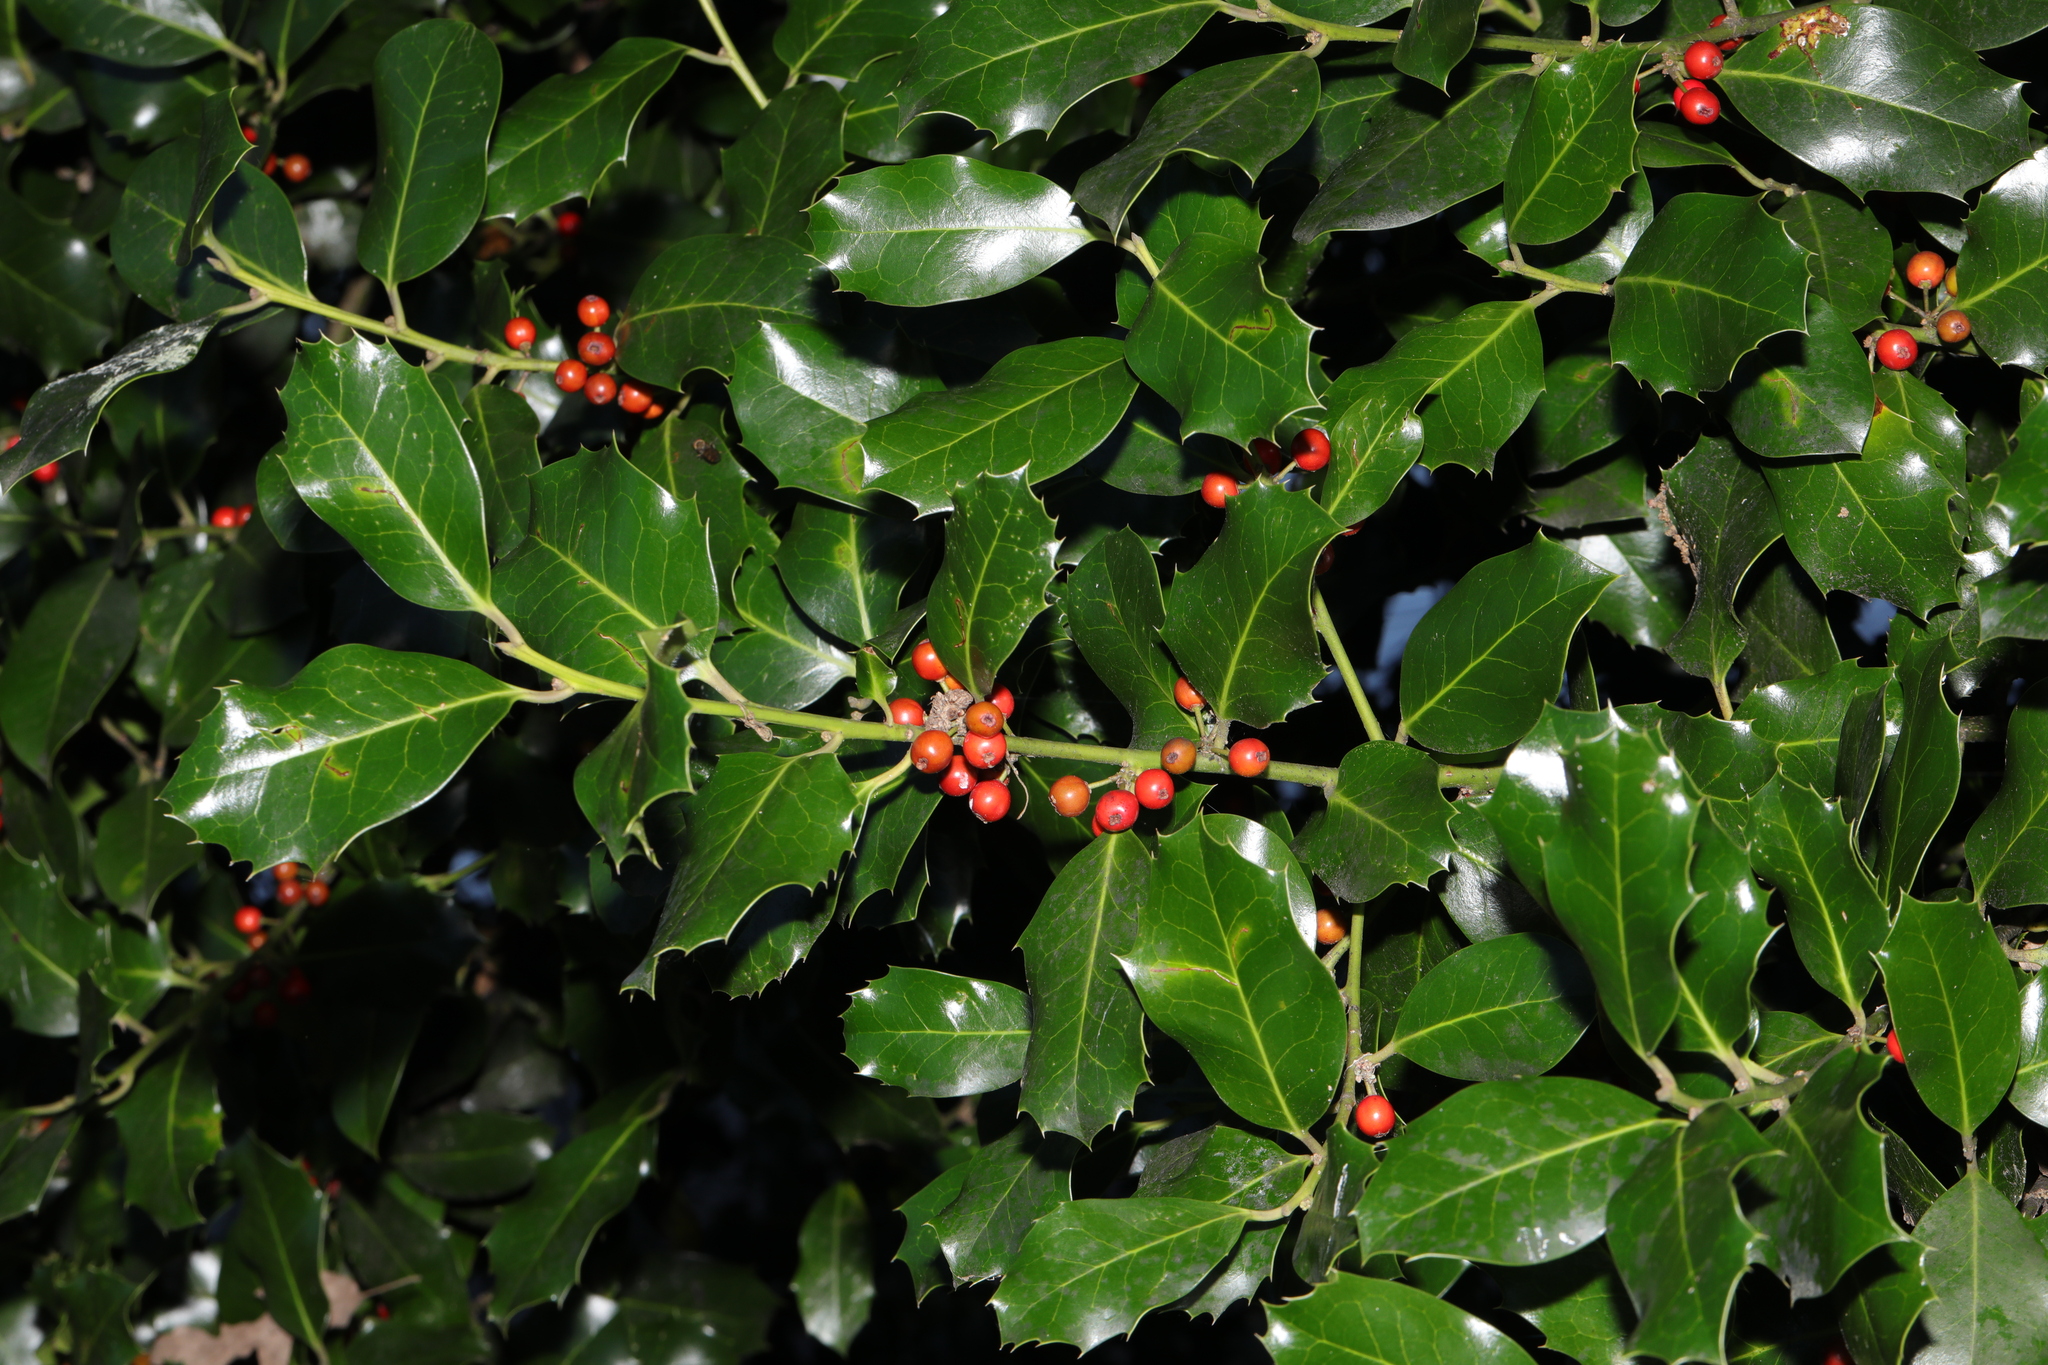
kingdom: Plantae
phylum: Tracheophyta
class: Magnoliopsida
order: Aquifoliales
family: Aquifoliaceae
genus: Ilex
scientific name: Ilex aquifolium
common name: English holly
